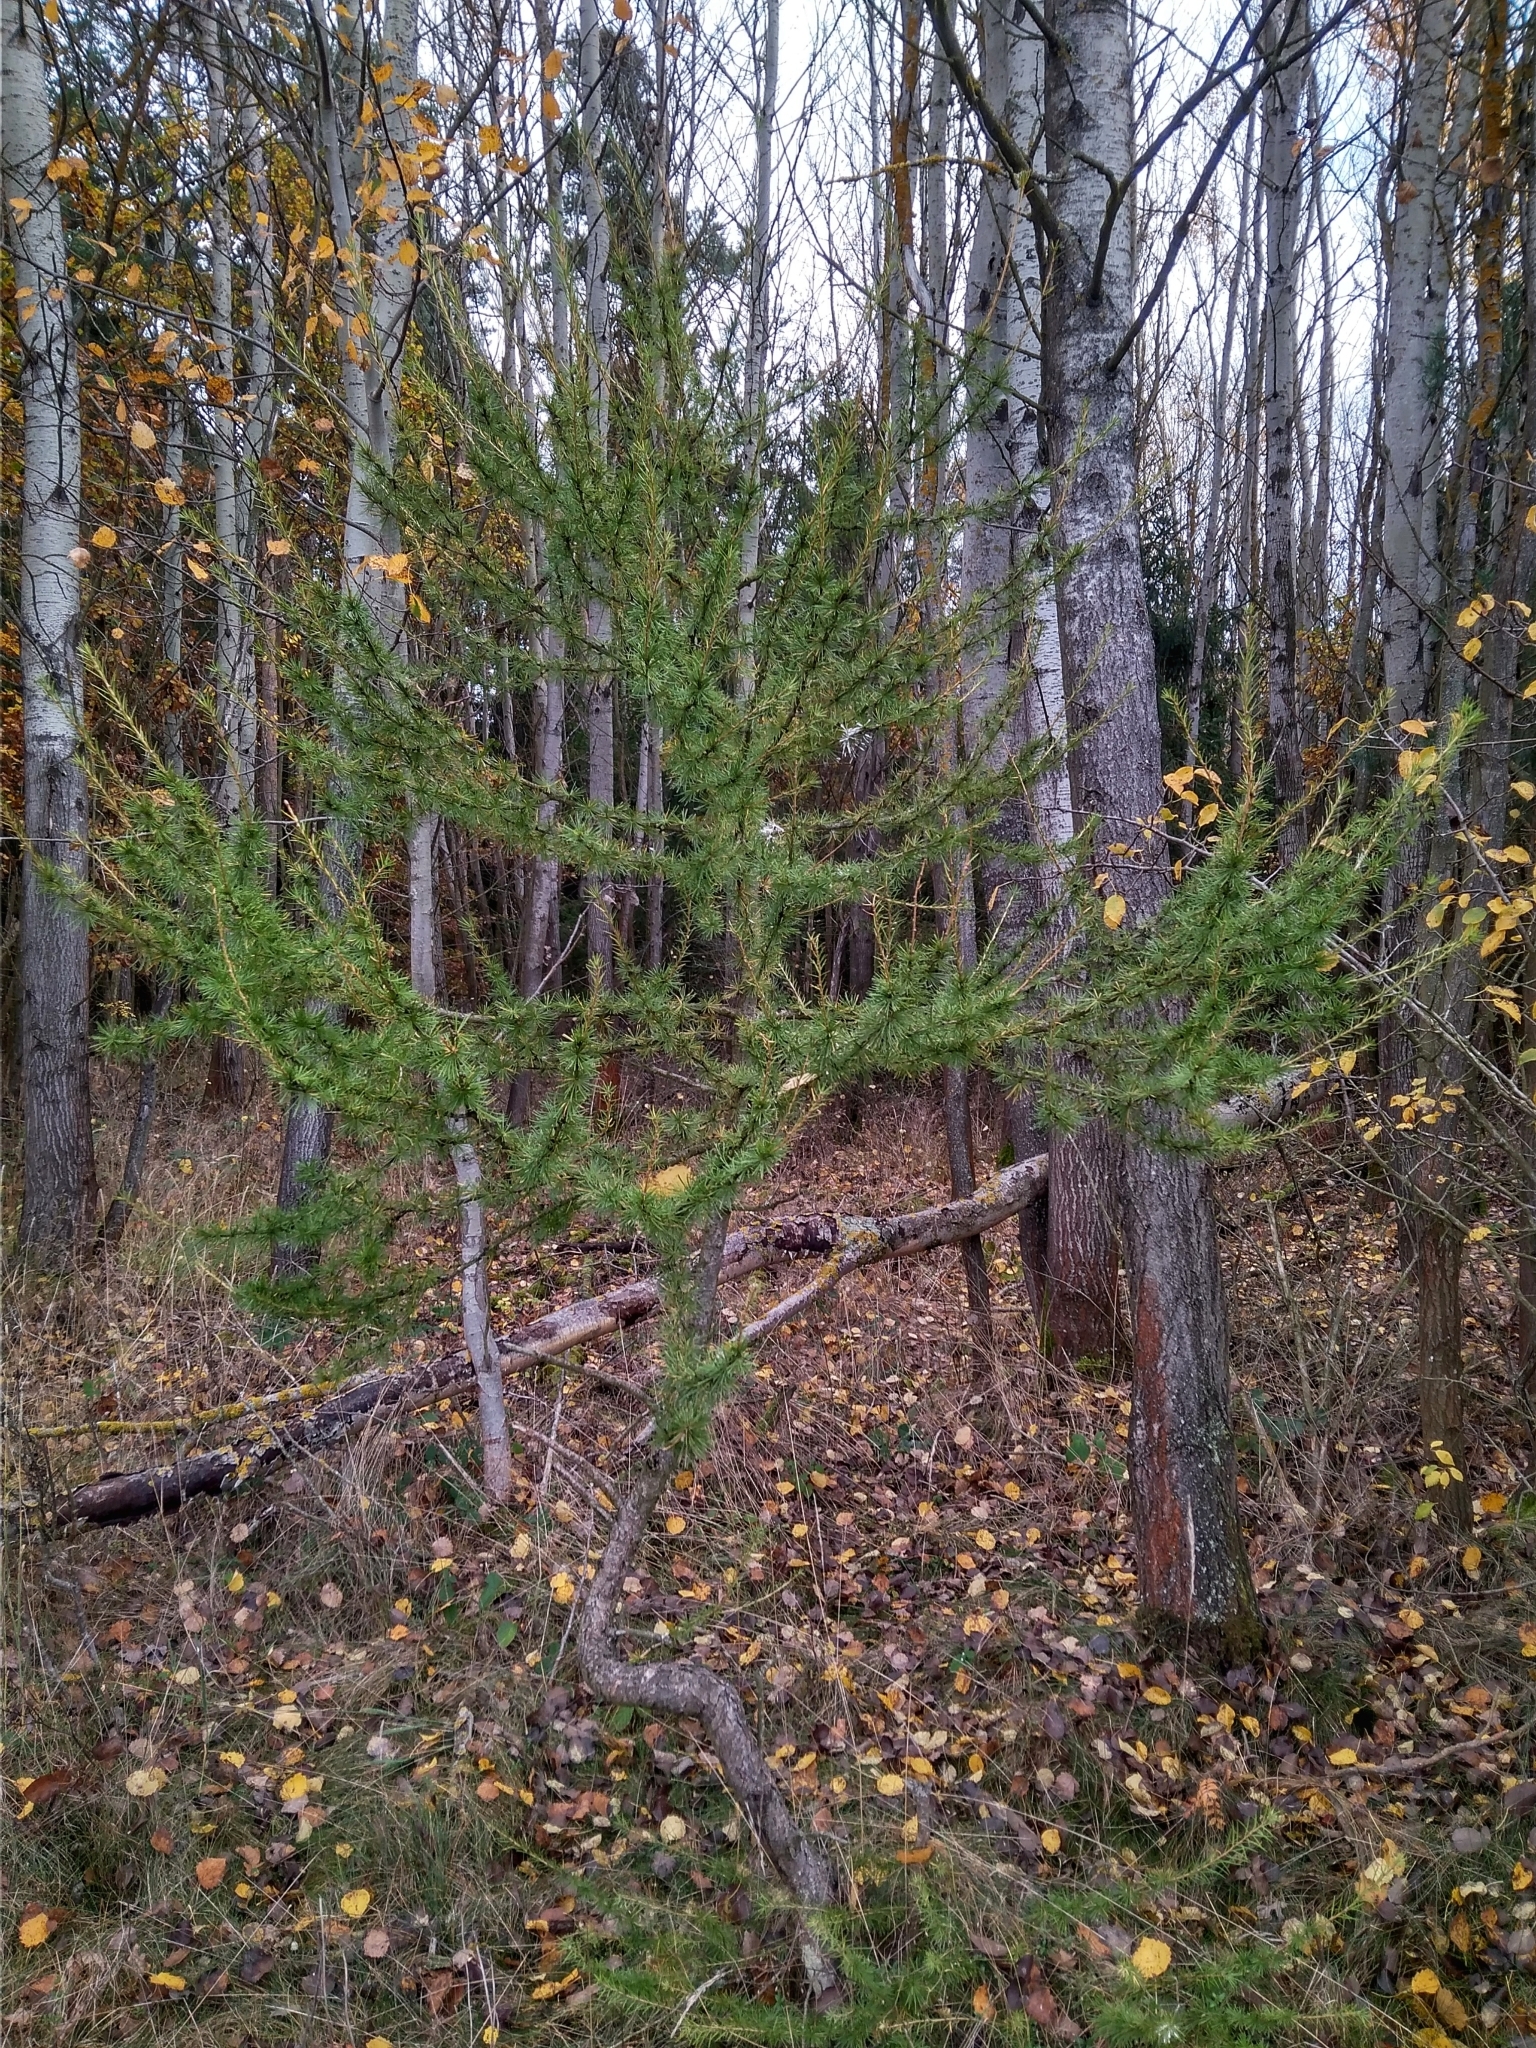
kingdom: Plantae
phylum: Tracheophyta
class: Pinopsida
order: Pinales
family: Pinaceae
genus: Larix
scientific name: Larix decidua
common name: European larch
